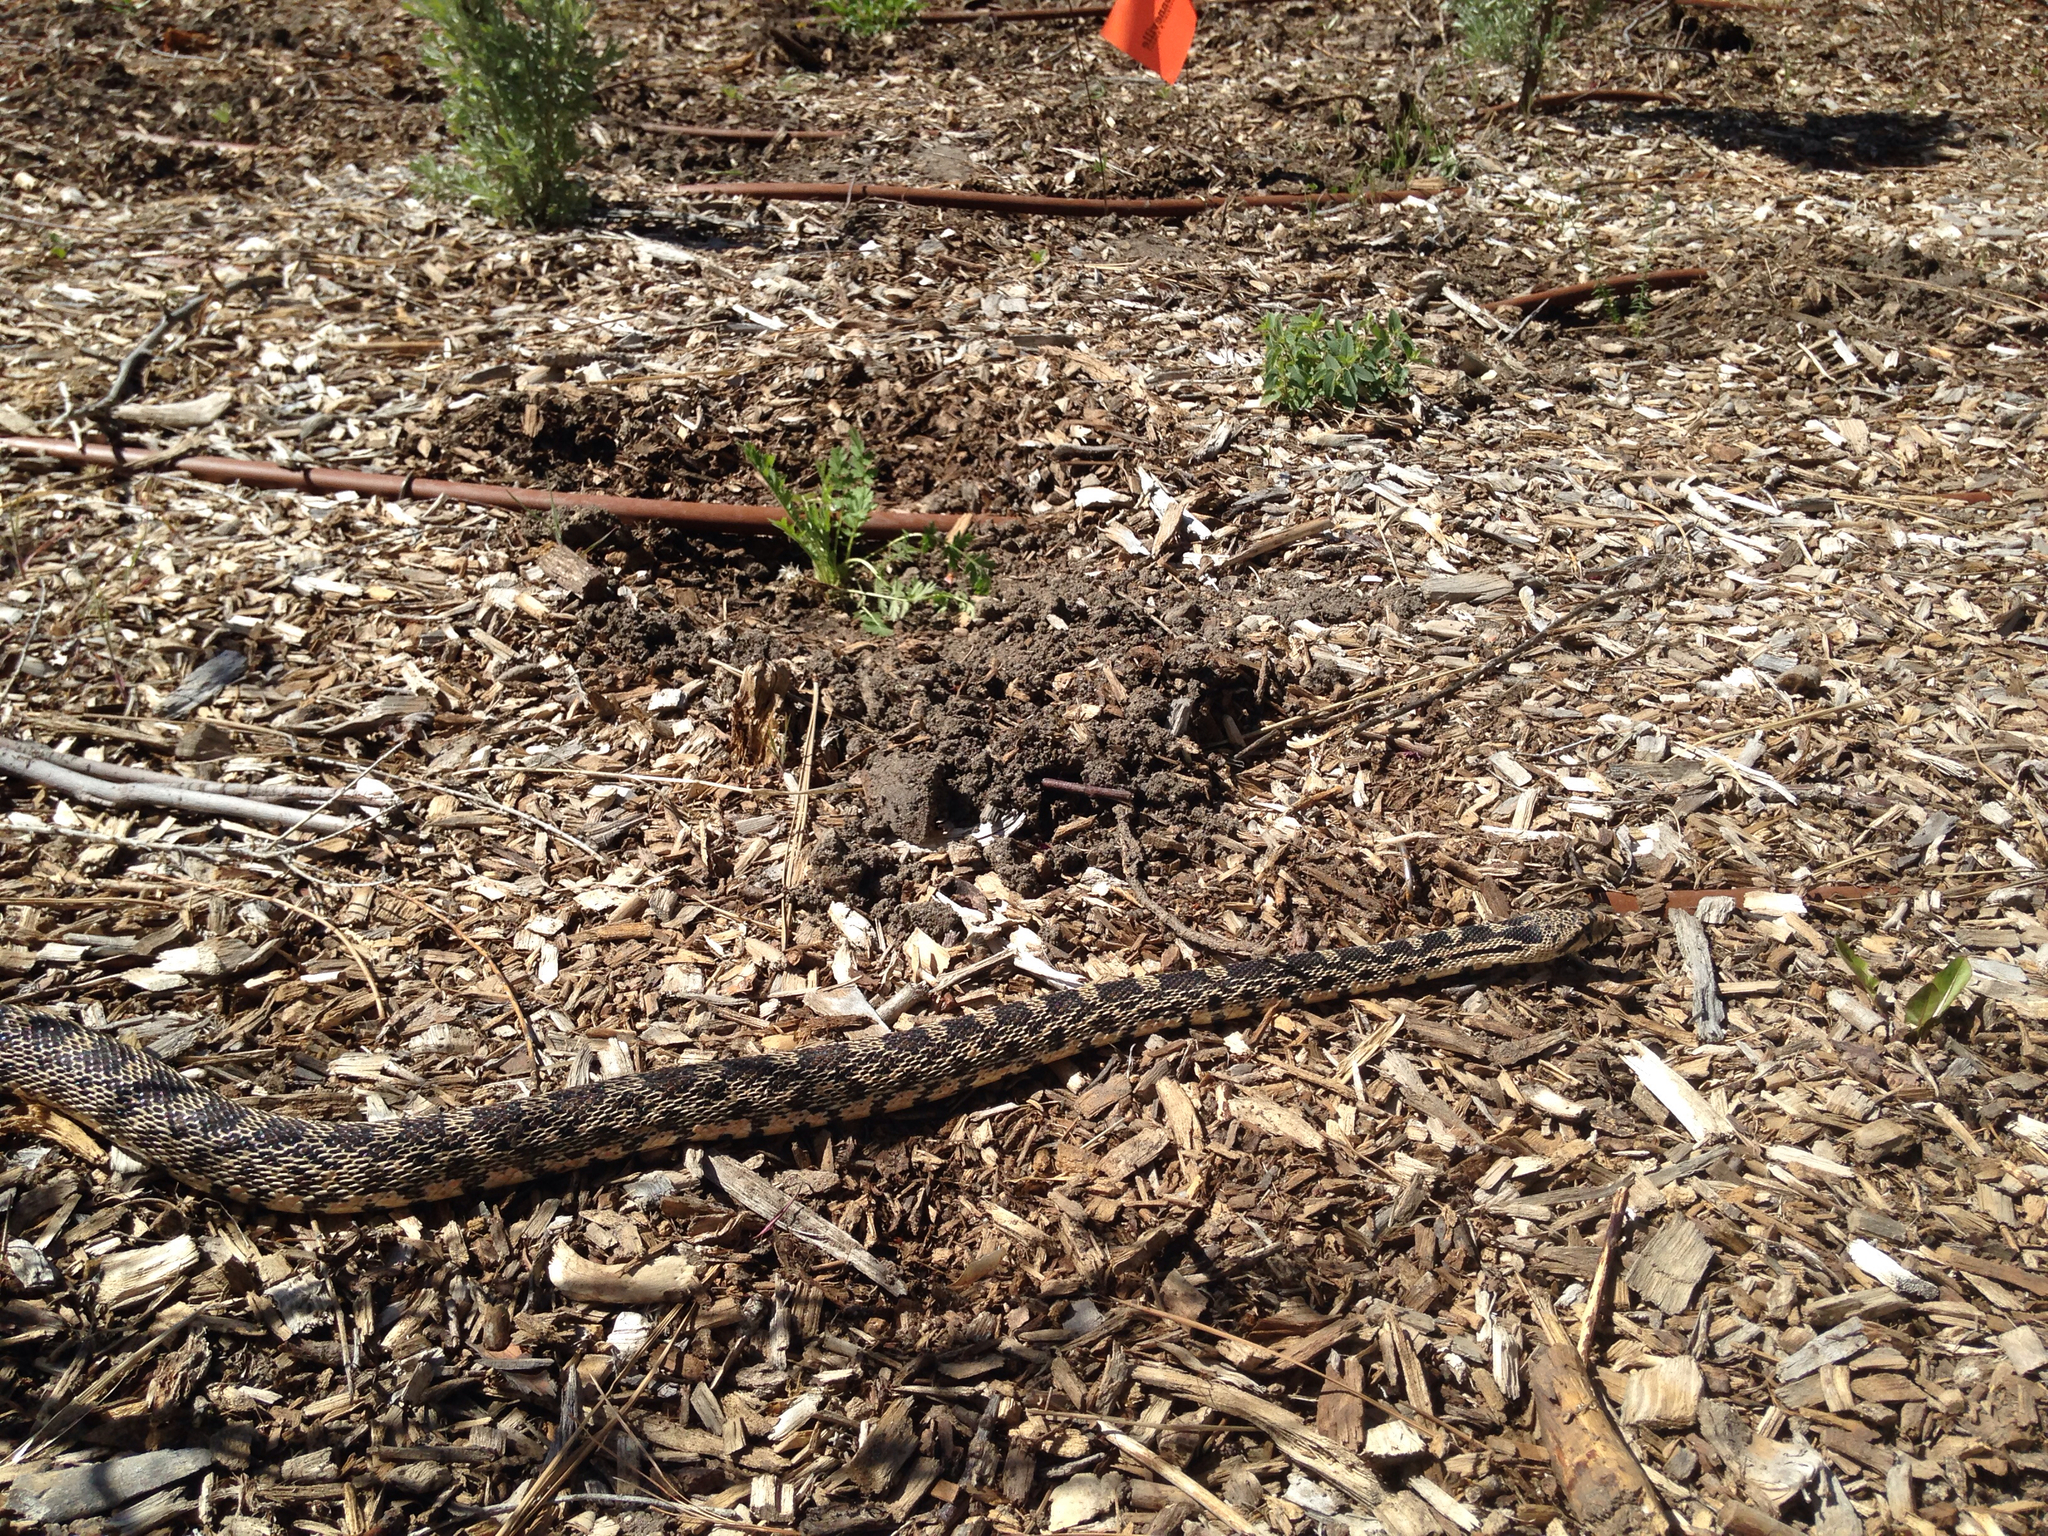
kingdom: Animalia
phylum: Chordata
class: Squamata
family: Colubridae
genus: Pituophis
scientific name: Pituophis catenifer
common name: Gopher snake
